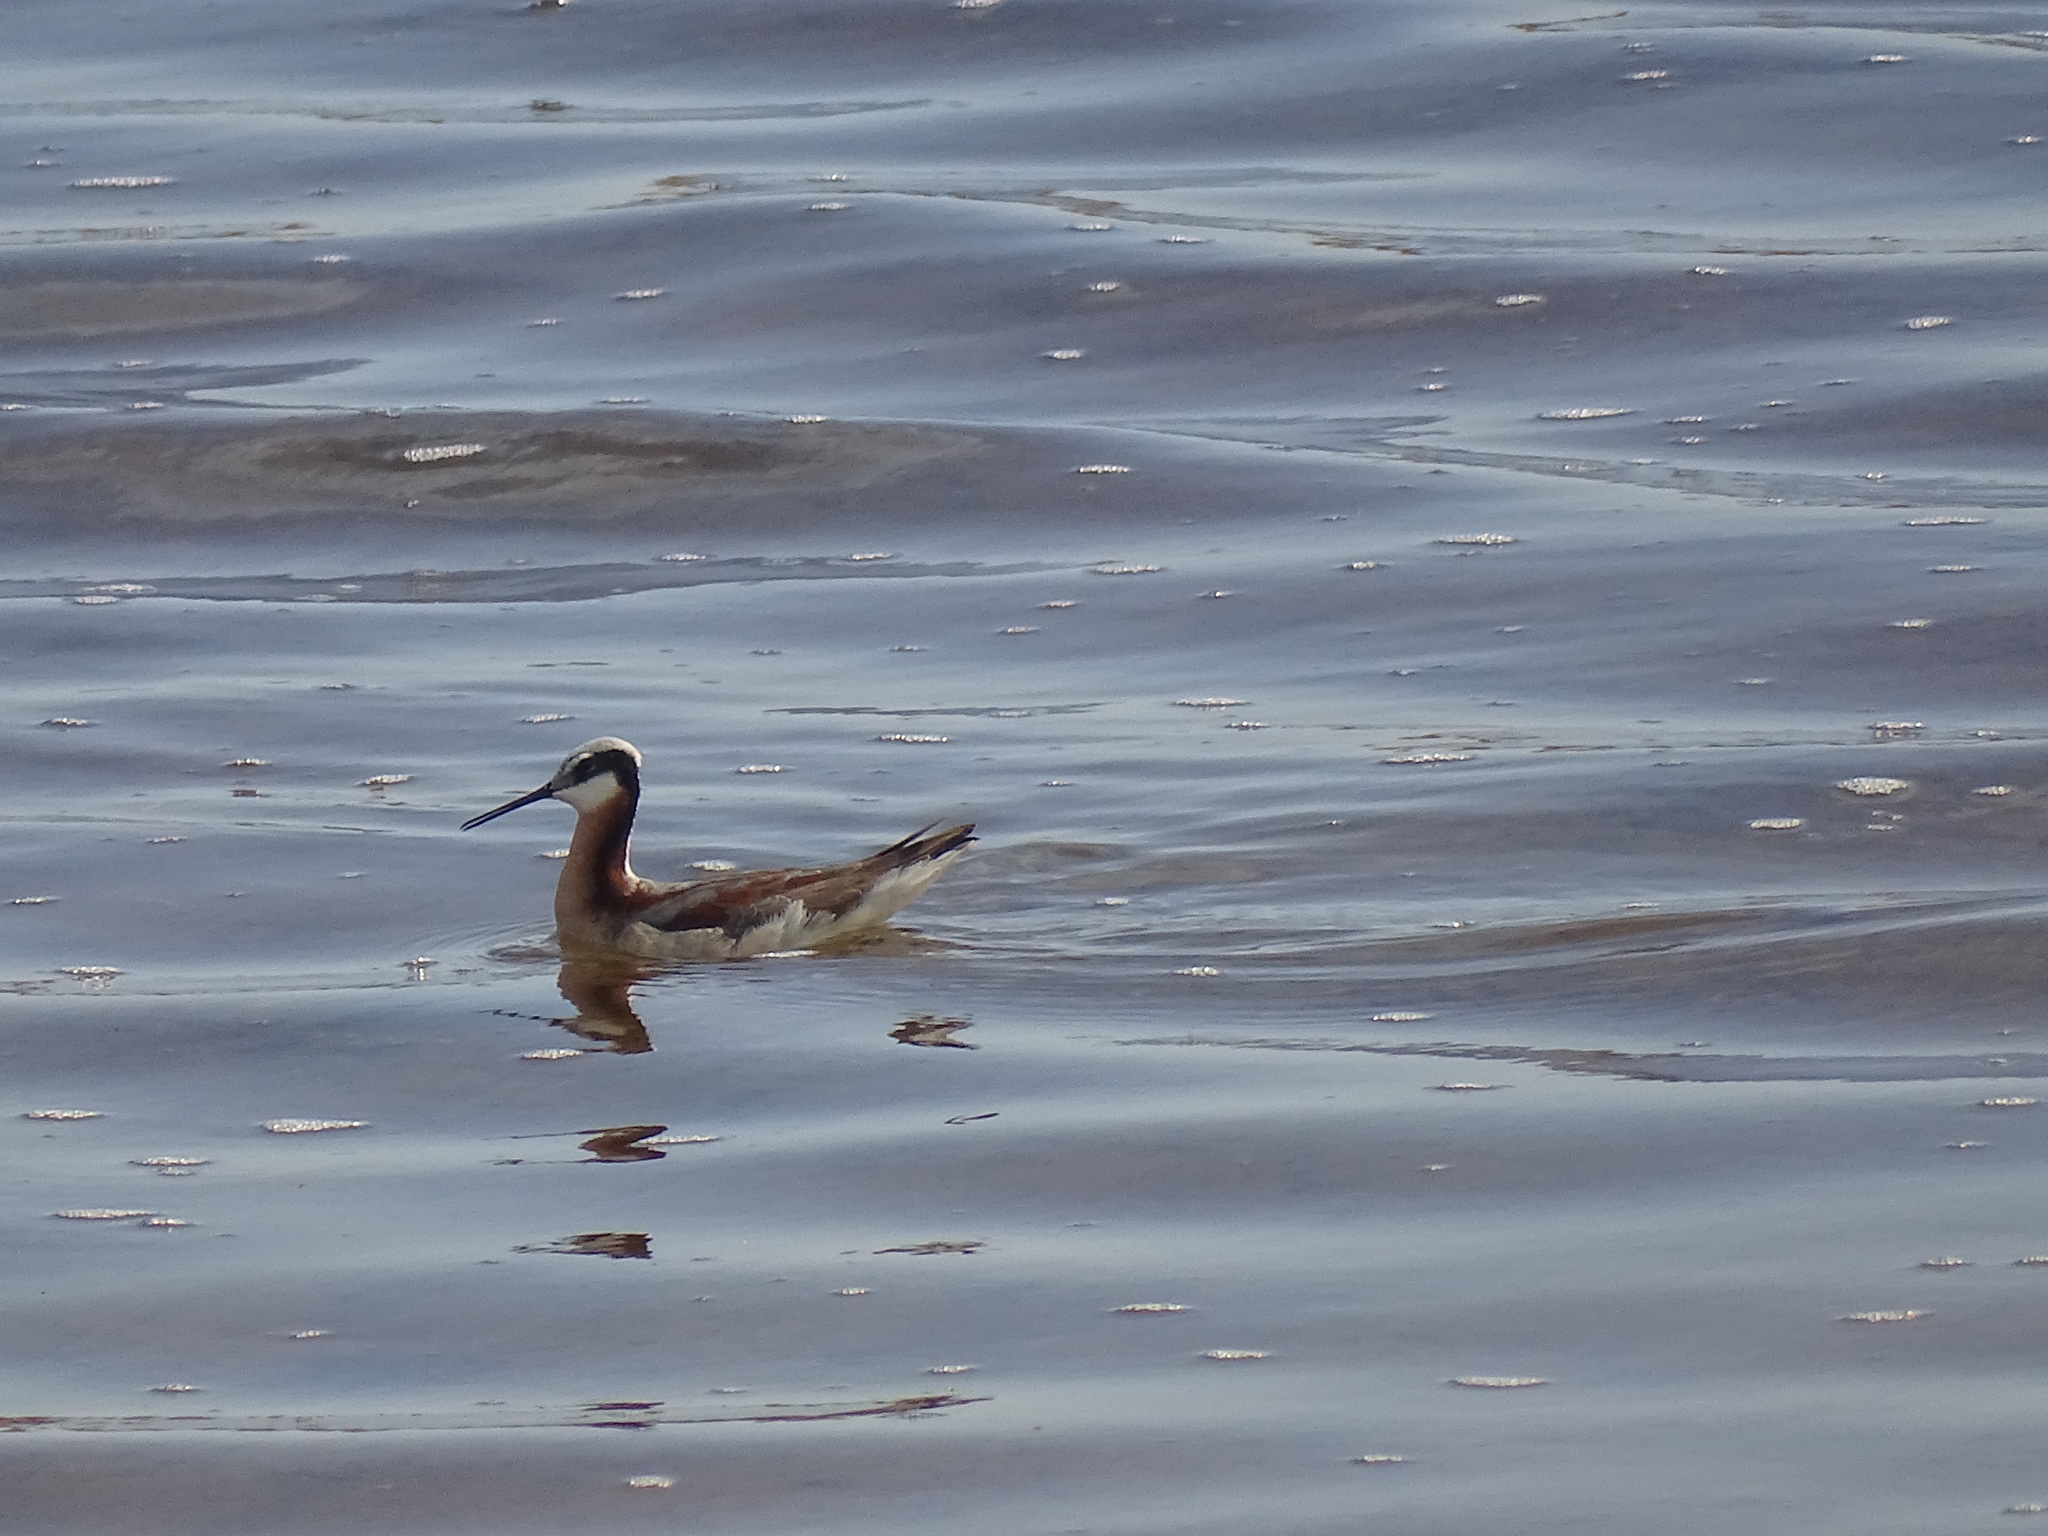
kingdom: Animalia
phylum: Chordata
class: Aves
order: Charadriiformes
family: Scolopacidae
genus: Phalaropus
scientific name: Phalaropus tricolor
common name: Wilson's phalarope
